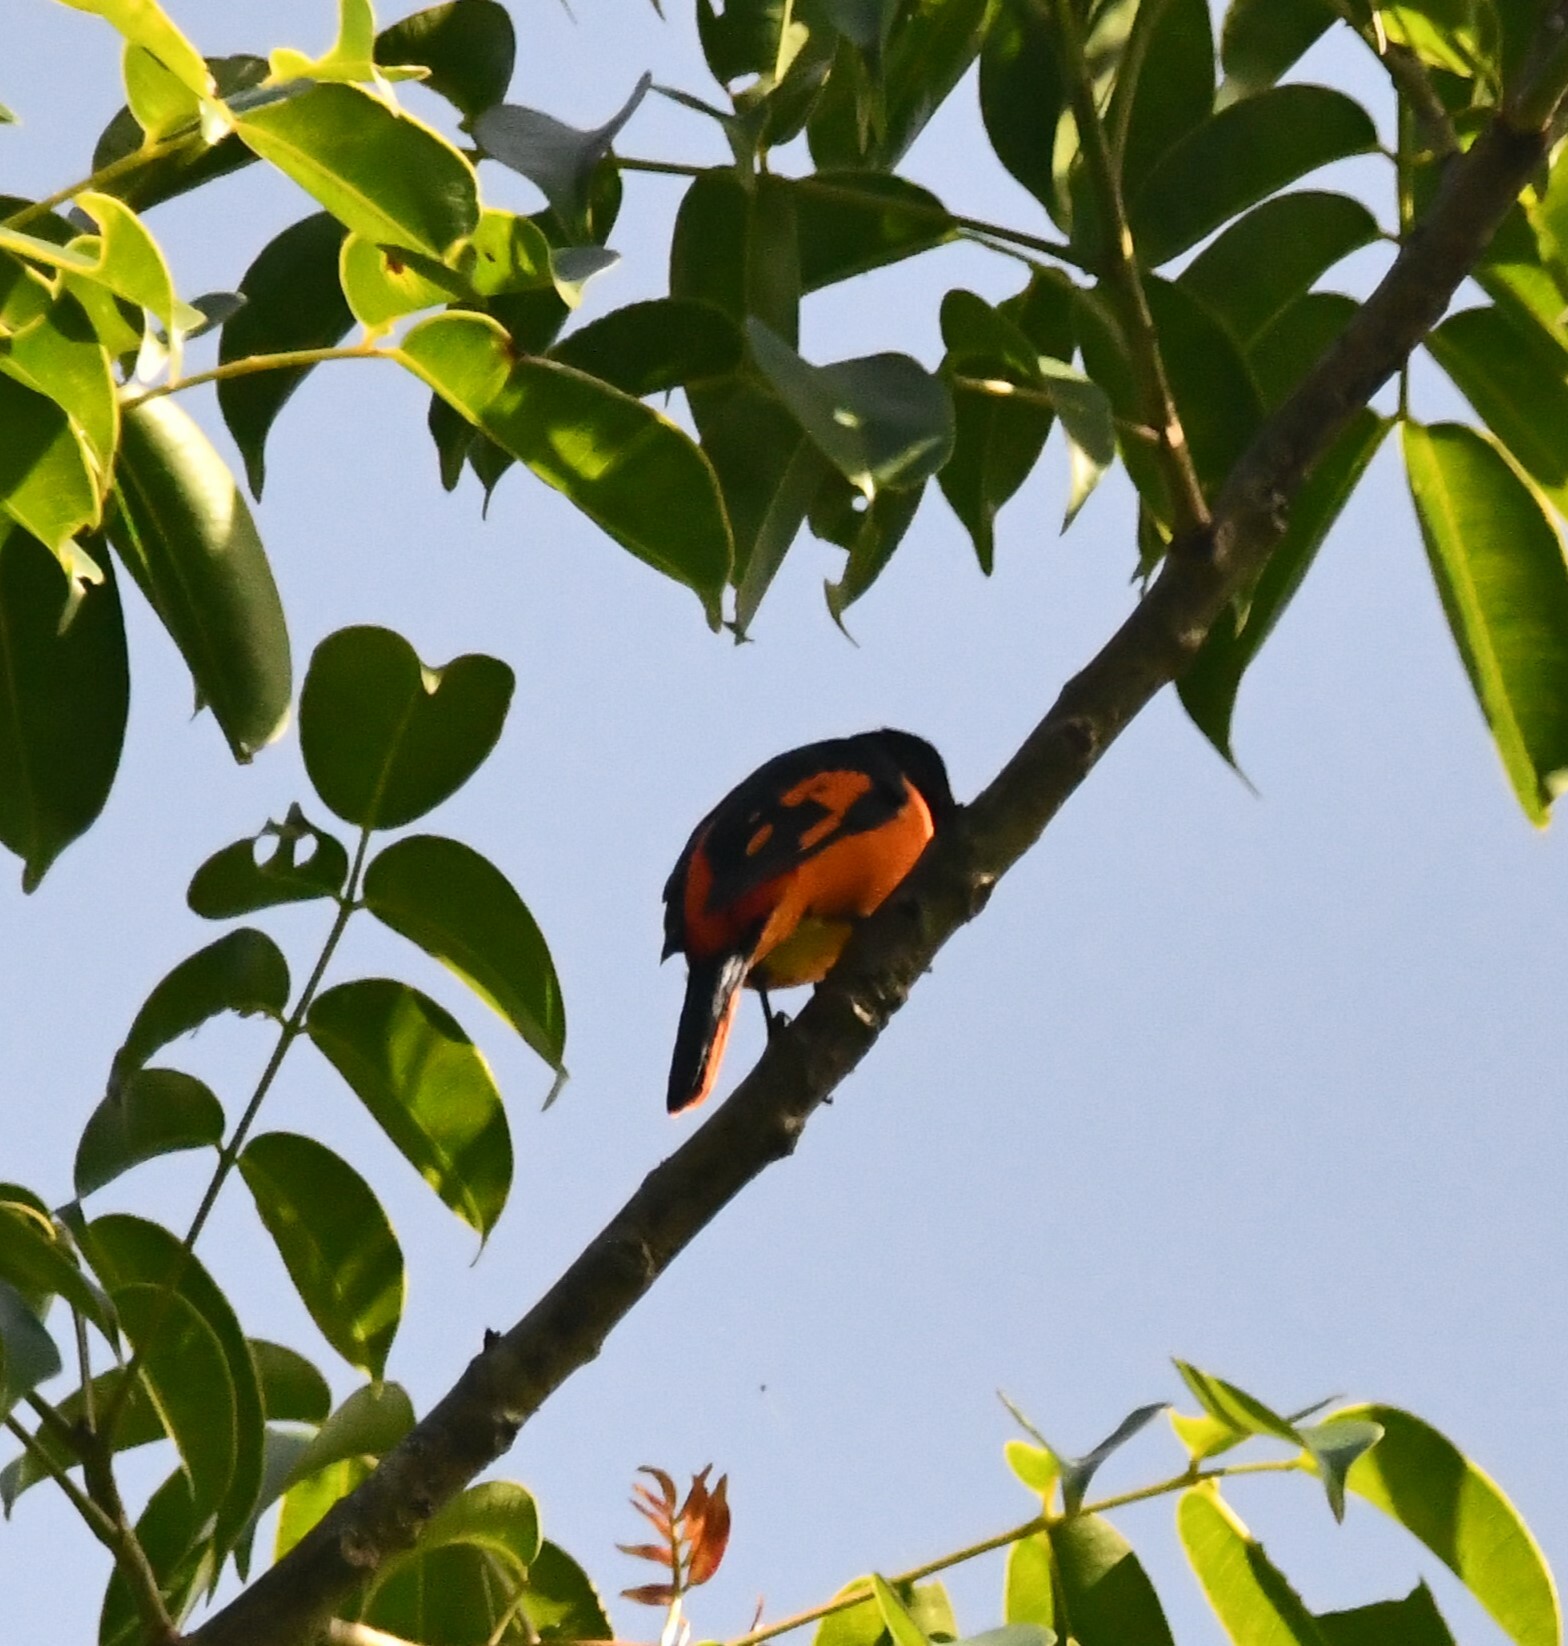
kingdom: Animalia
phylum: Chordata
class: Aves
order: Passeriformes
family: Campephagidae
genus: Pericrocotus
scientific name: Pericrocotus flammeus
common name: Orange minivet
